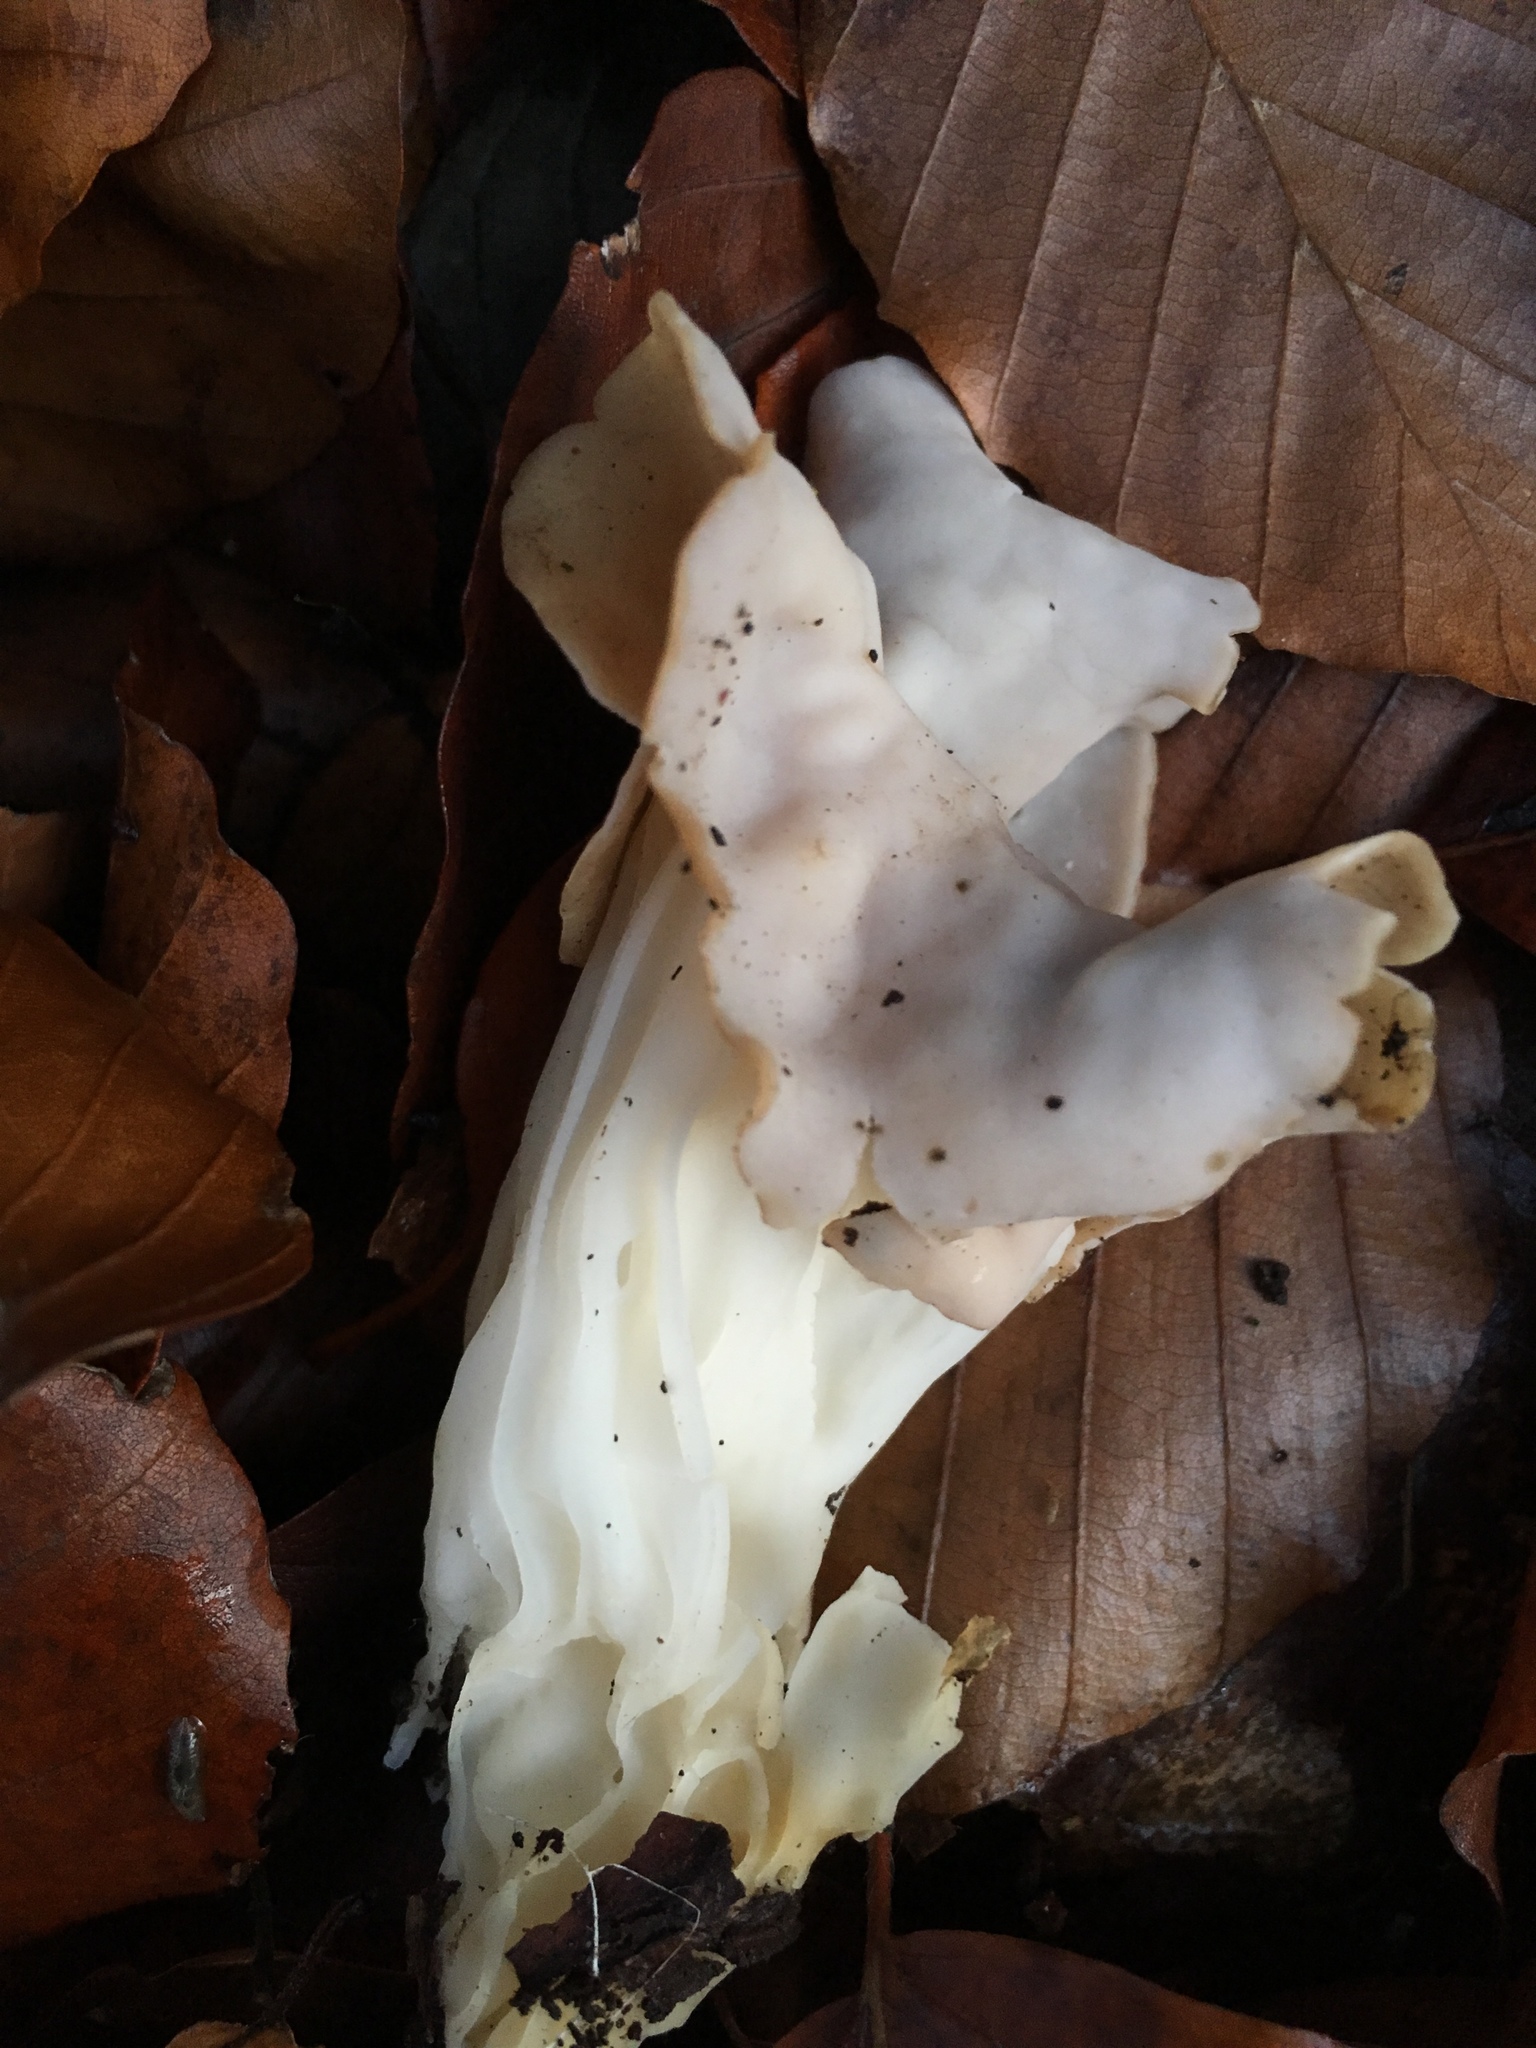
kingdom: Fungi
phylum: Ascomycota
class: Pezizomycetes
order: Pezizales
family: Helvellaceae
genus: Helvella
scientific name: Helvella crispa
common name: White saddle
